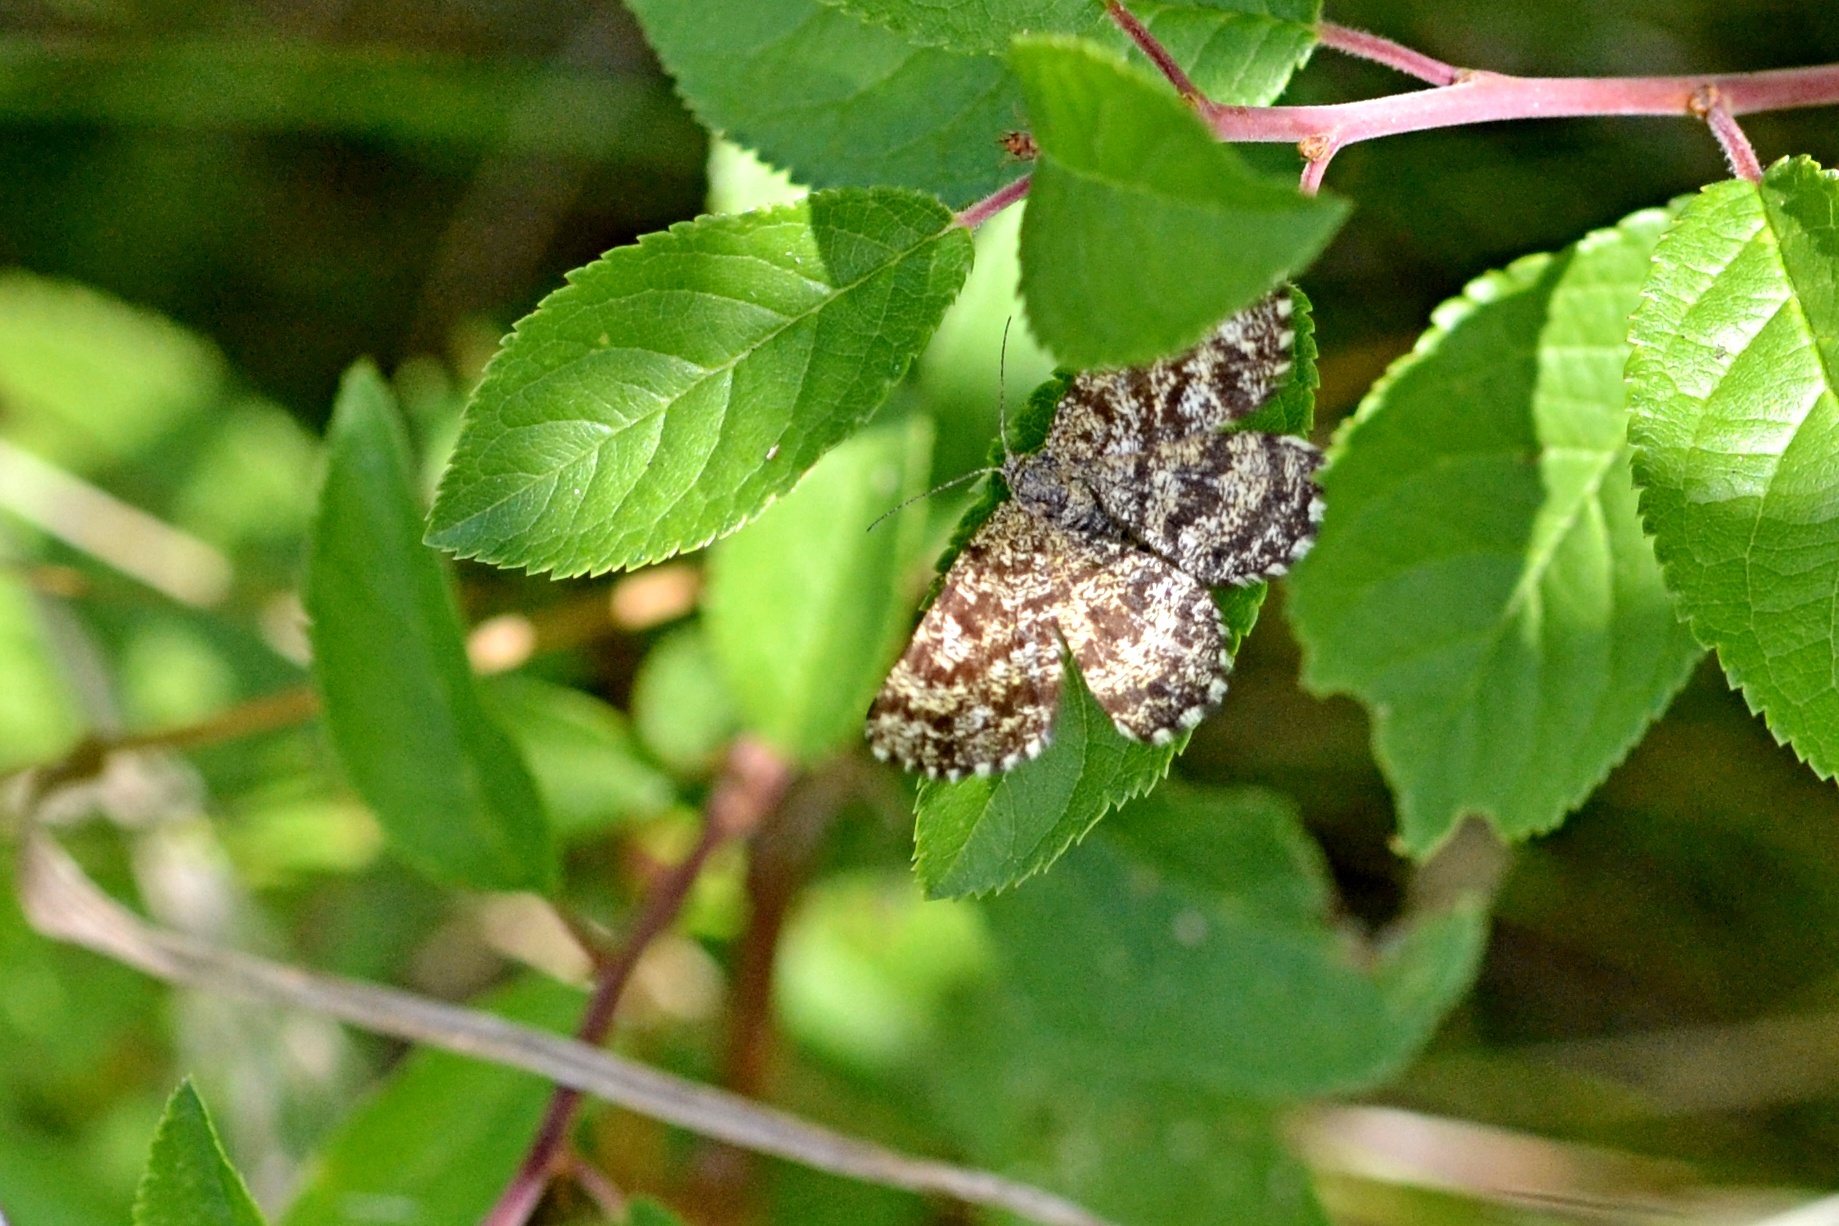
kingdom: Animalia
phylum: Arthropoda
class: Insecta
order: Lepidoptera
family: Geometridae
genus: Ematurga
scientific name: Ematurga atomaria
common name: Common heath
